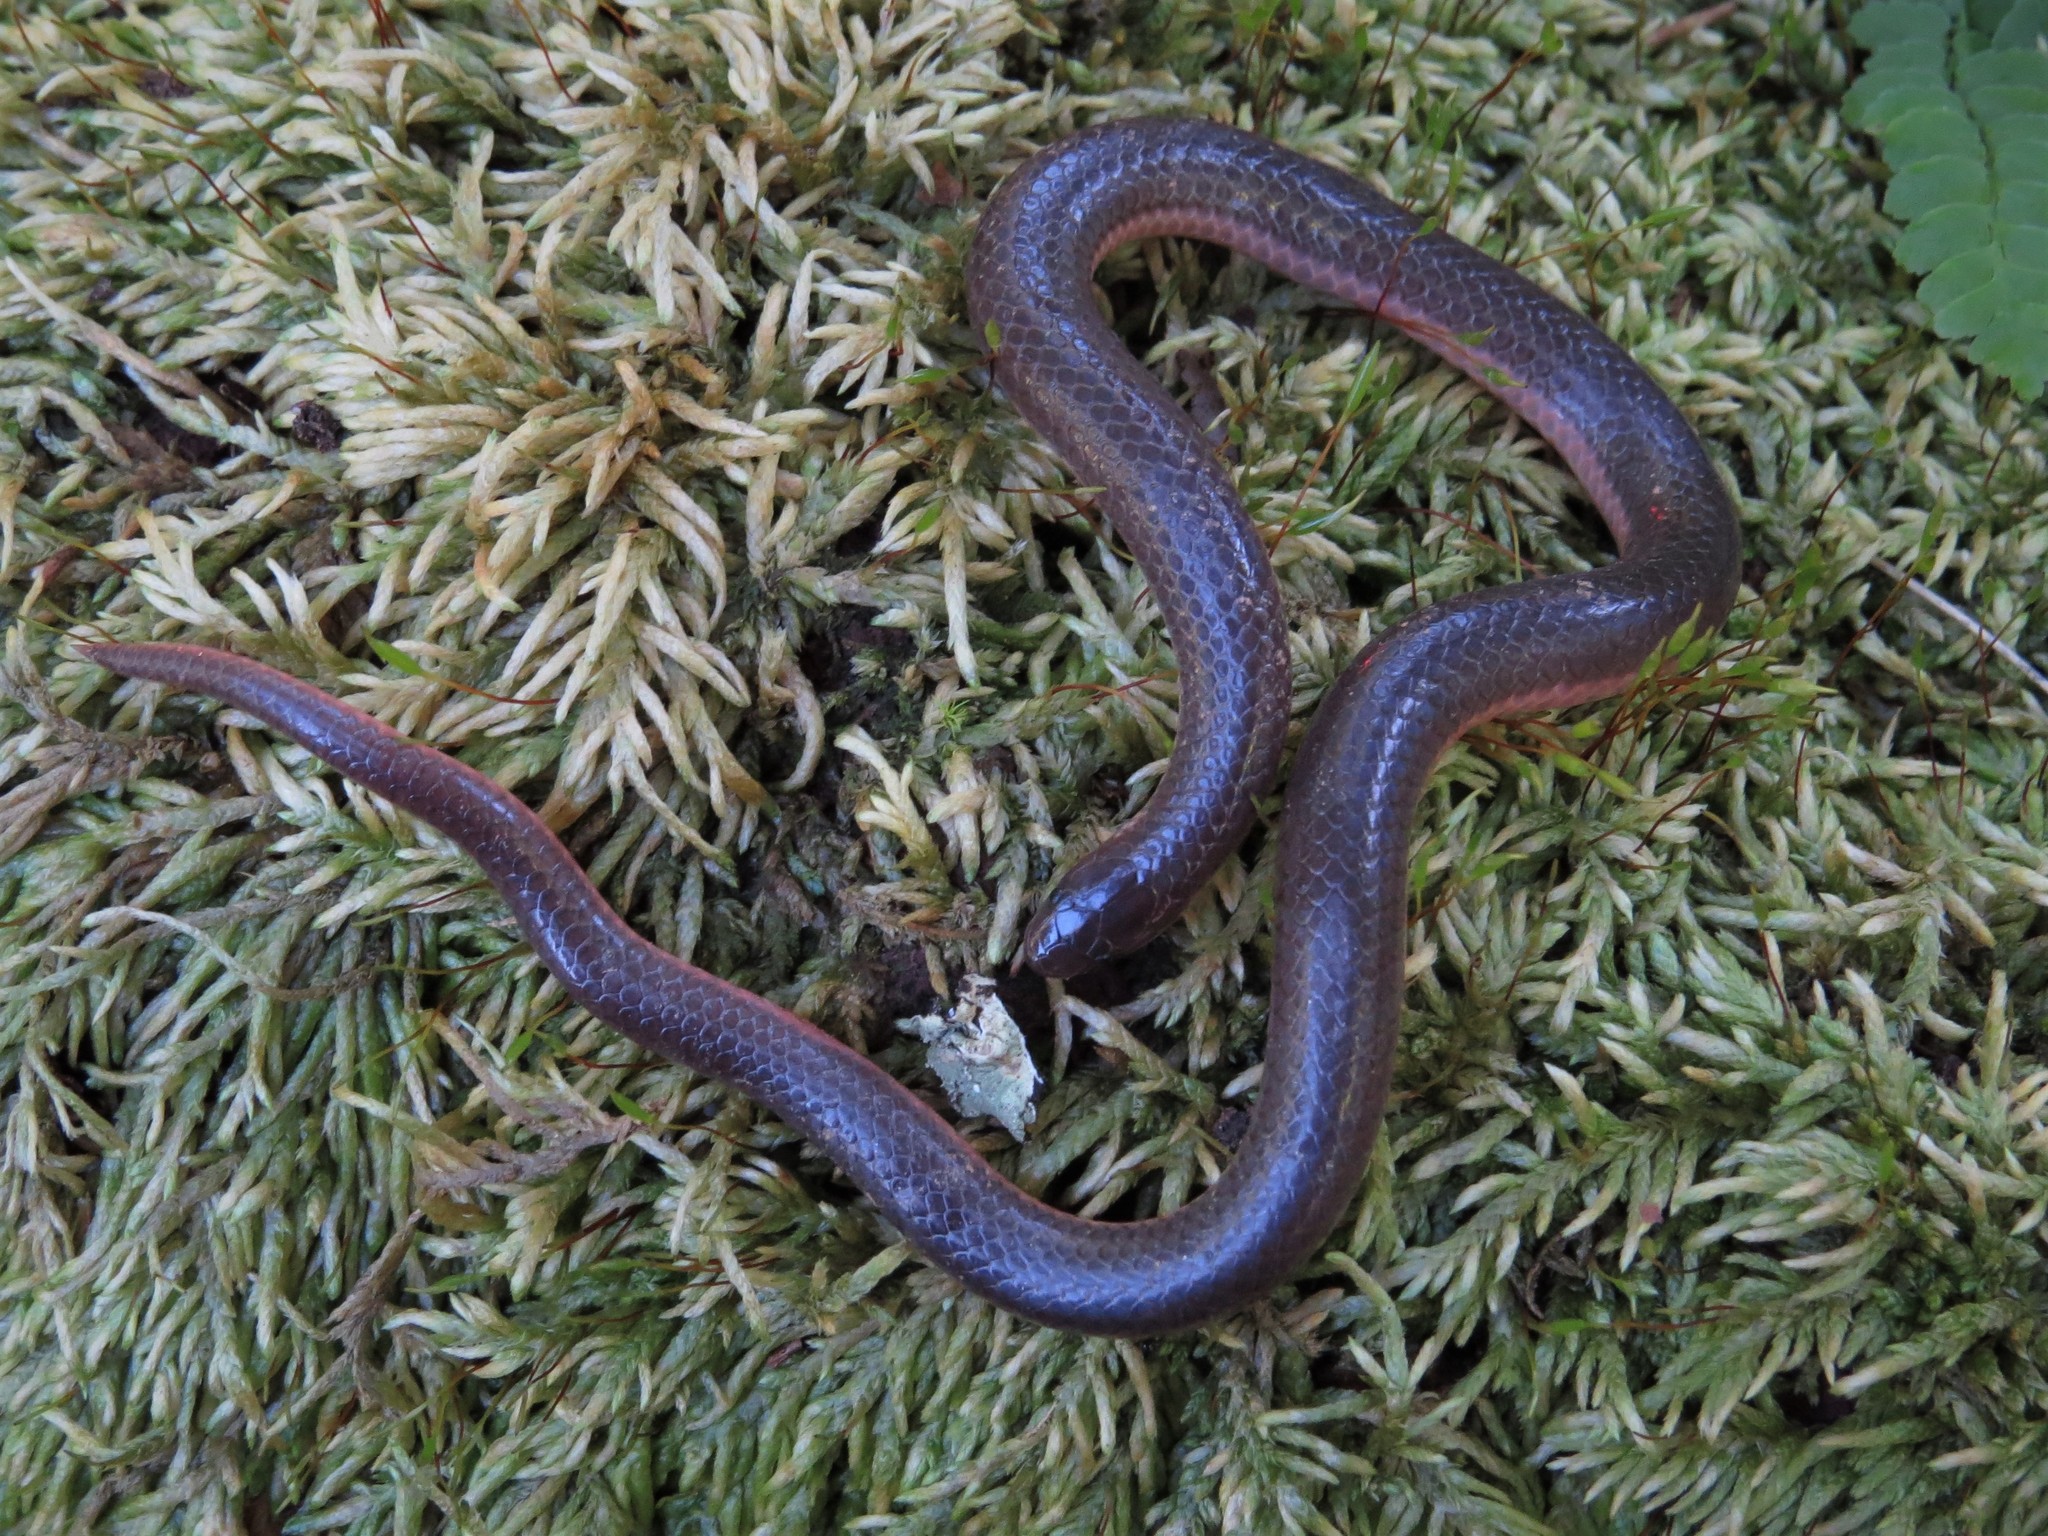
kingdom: Animalia
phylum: Chordata
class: Squamata
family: Colubridae
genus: Carphophis
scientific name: Carphophis amoenus
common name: Eastern worm snake
